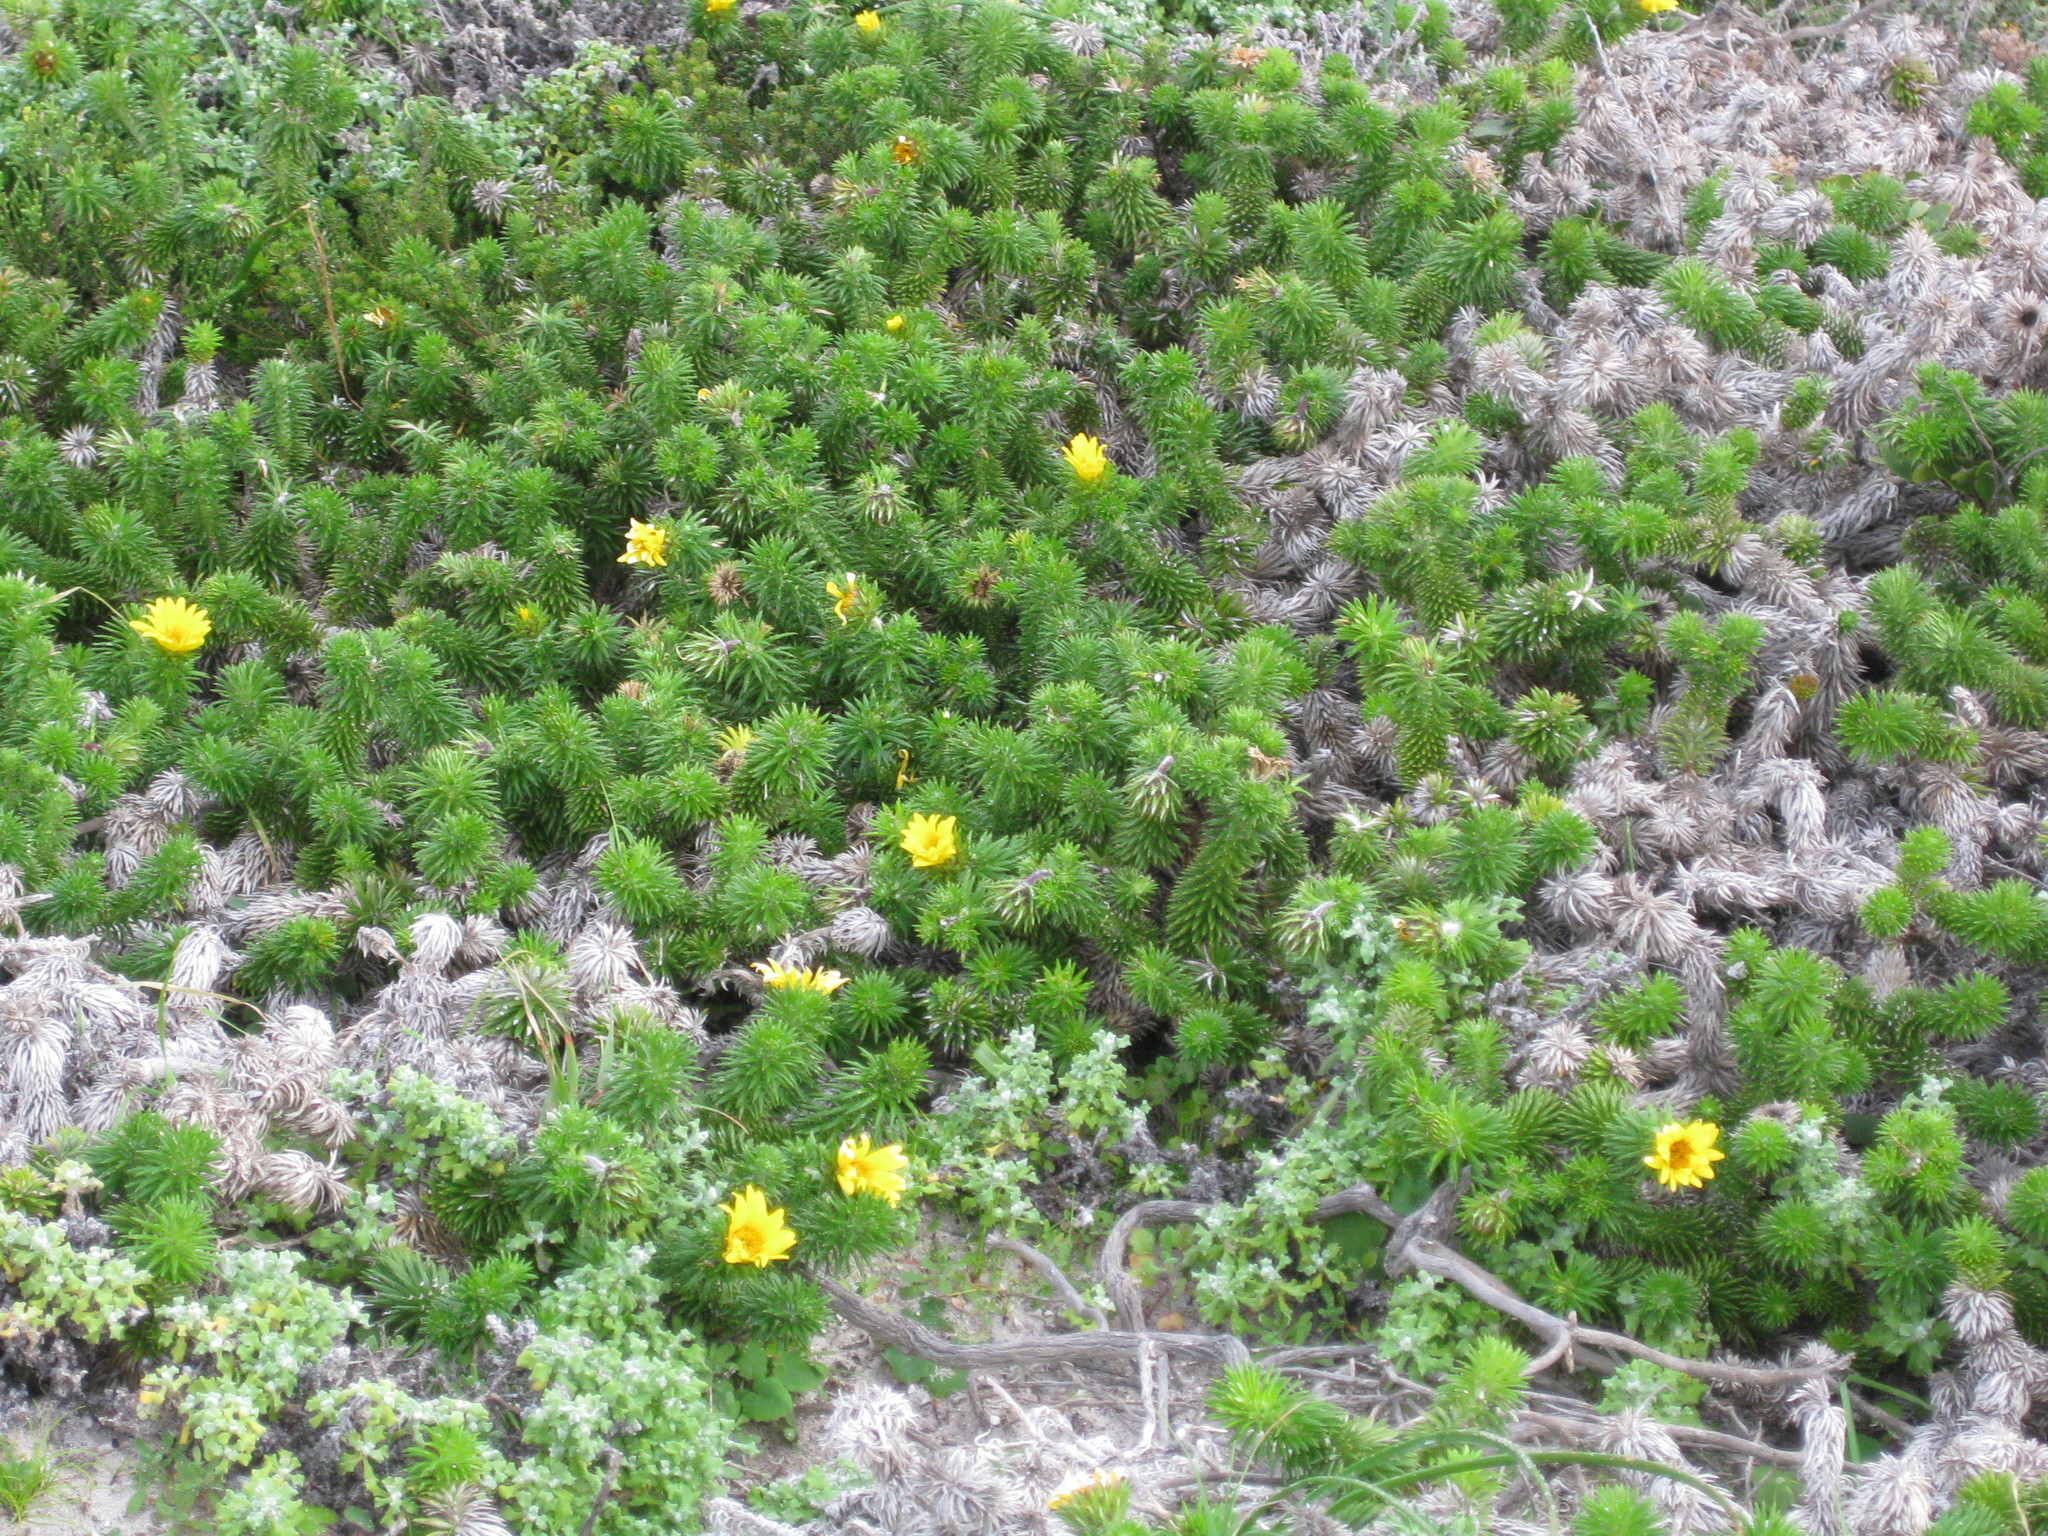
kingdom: Plantae
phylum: Tracheophyta
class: Magnoliopsida
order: Asterales
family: Asteraceae
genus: Cullumia
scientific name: Cullumia squarrosa
